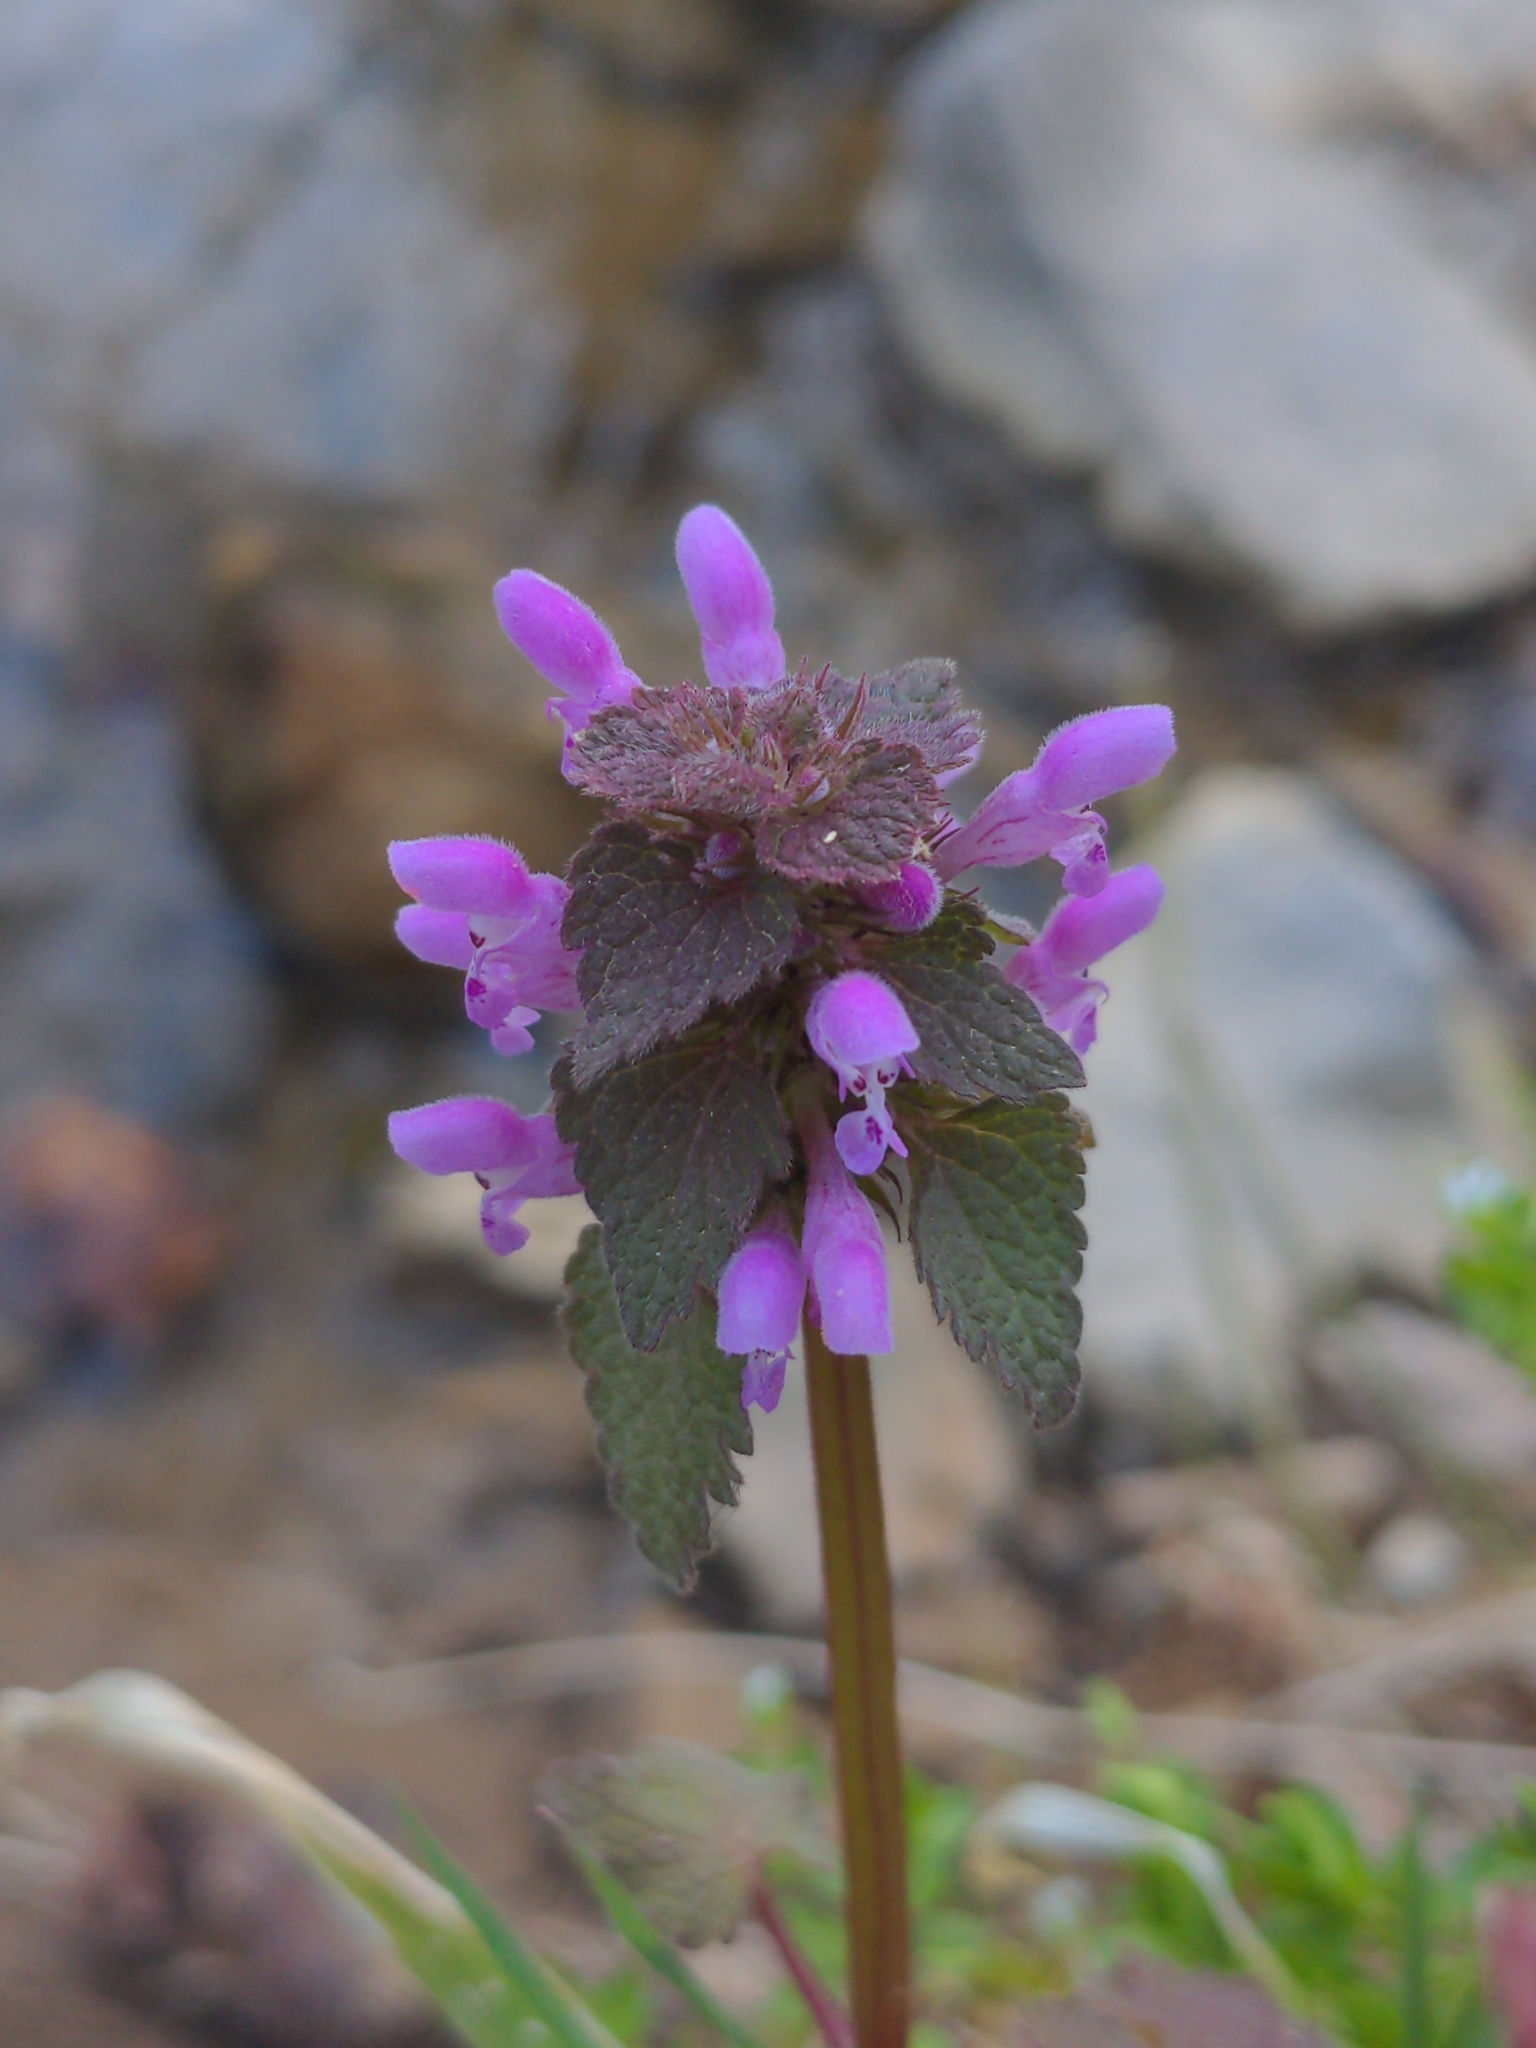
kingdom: Plantae
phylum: Tracheophyta
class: Magnoliopsida
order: Lamiales
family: Lamiaceae
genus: Lamium
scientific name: Lamium purpureum
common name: Red dead-nettle
